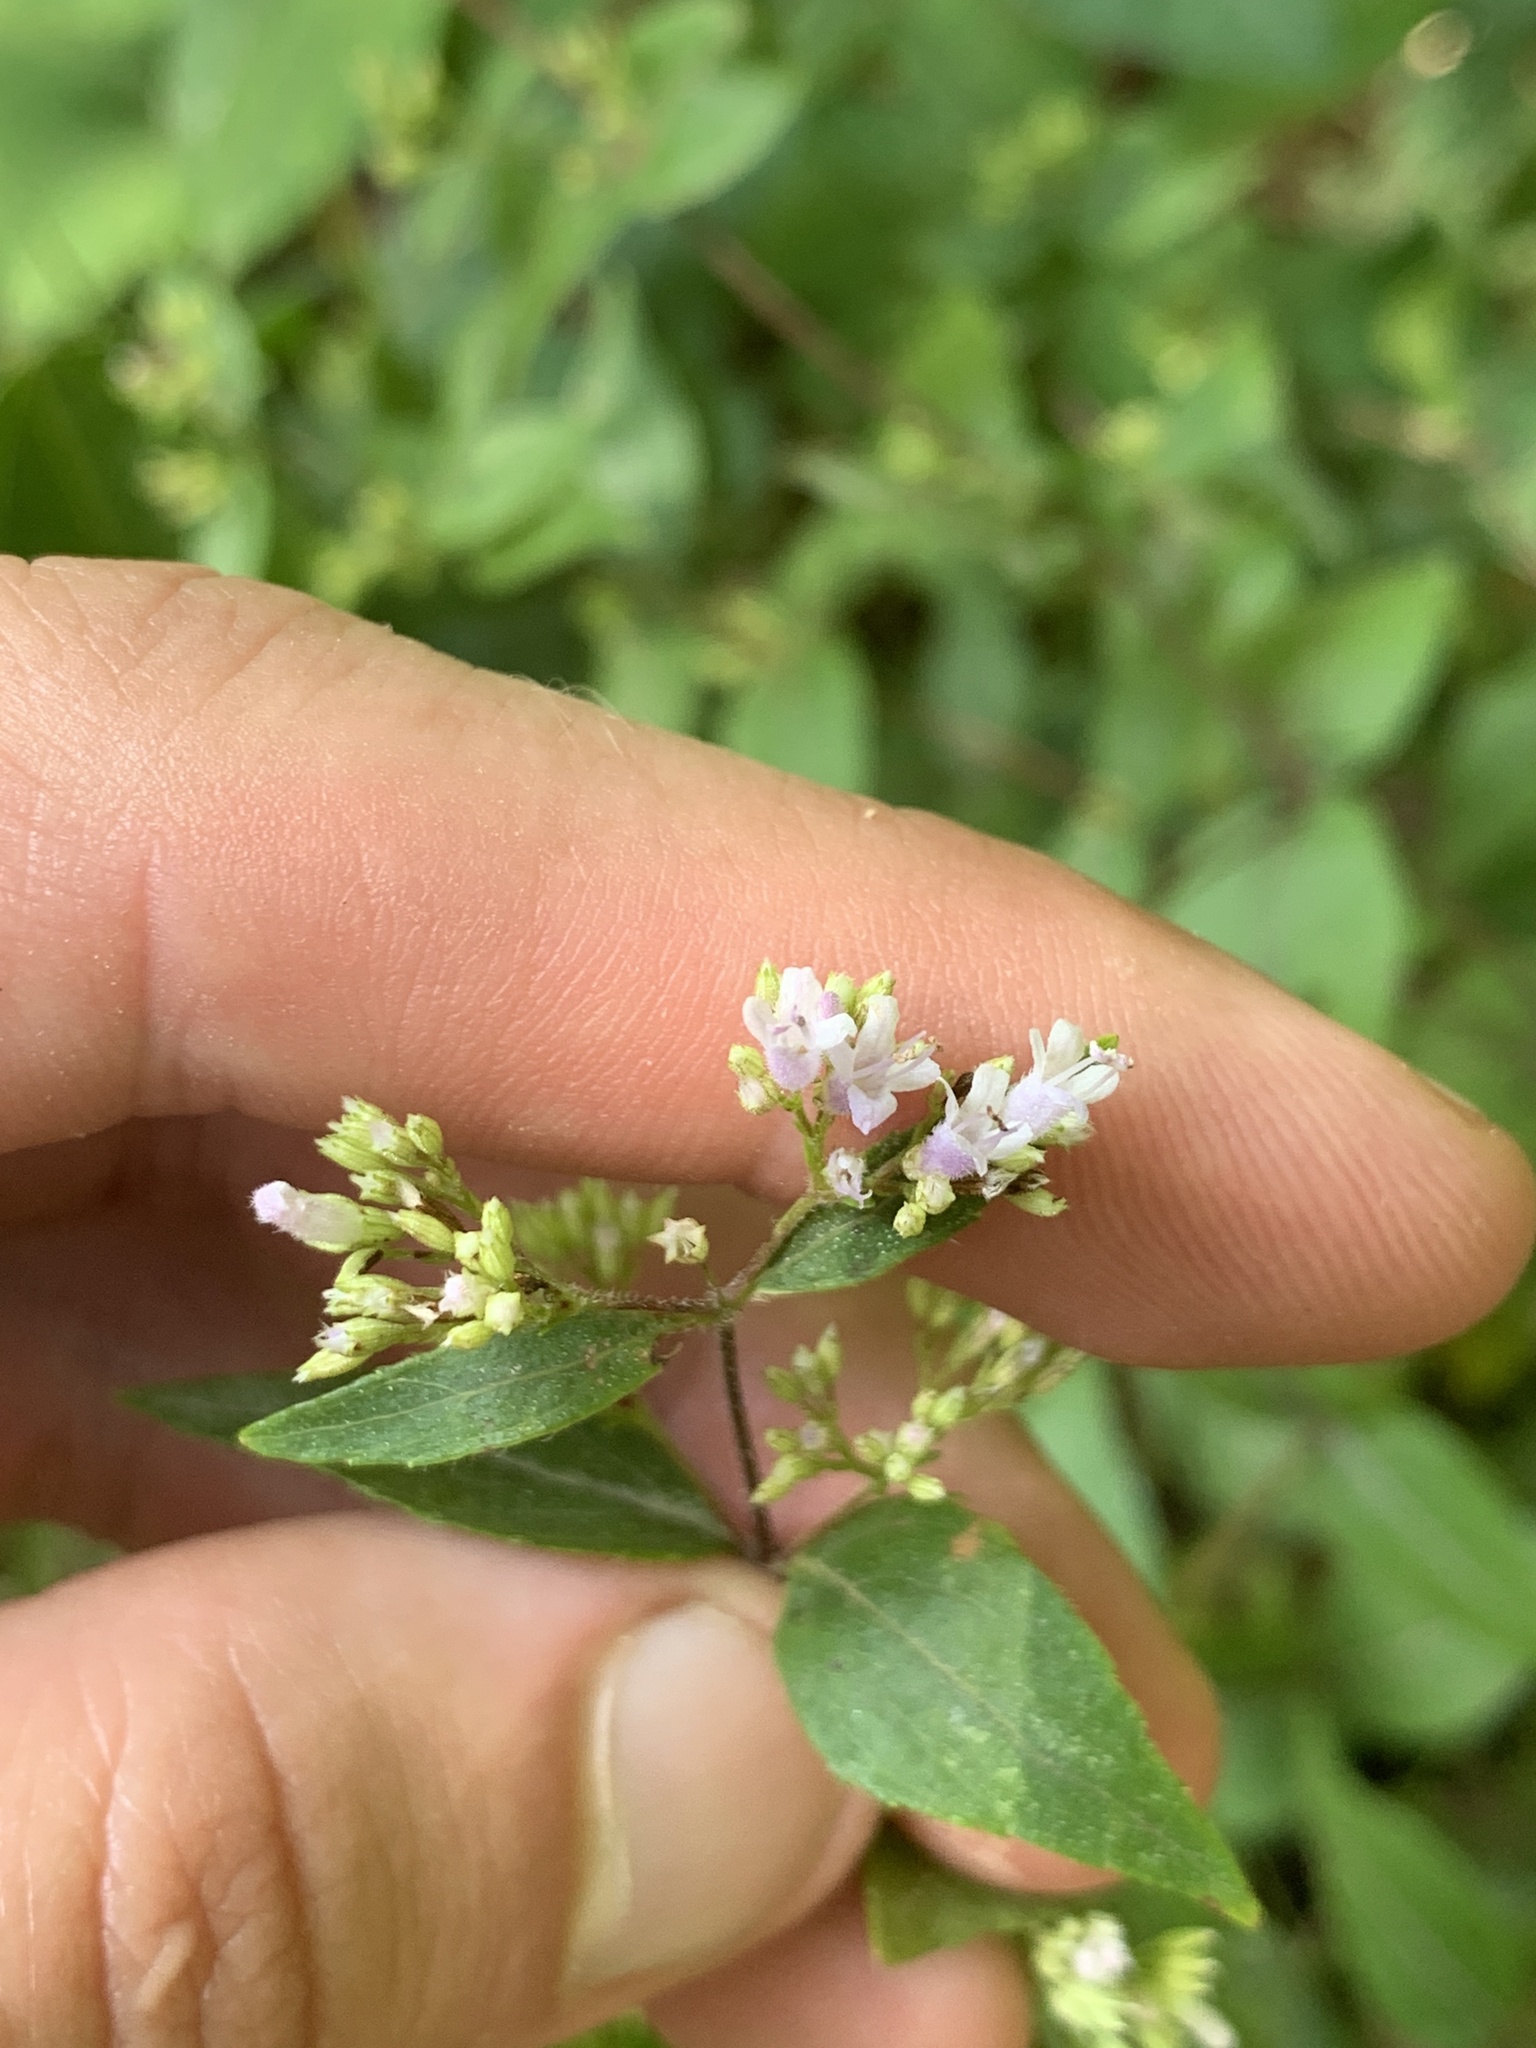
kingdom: Plantae
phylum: Tracheophyta
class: Magnoliopsida
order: Lamiales
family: Lamiaceae
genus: Cunila
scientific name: Cunila origanoides
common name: American dittany
